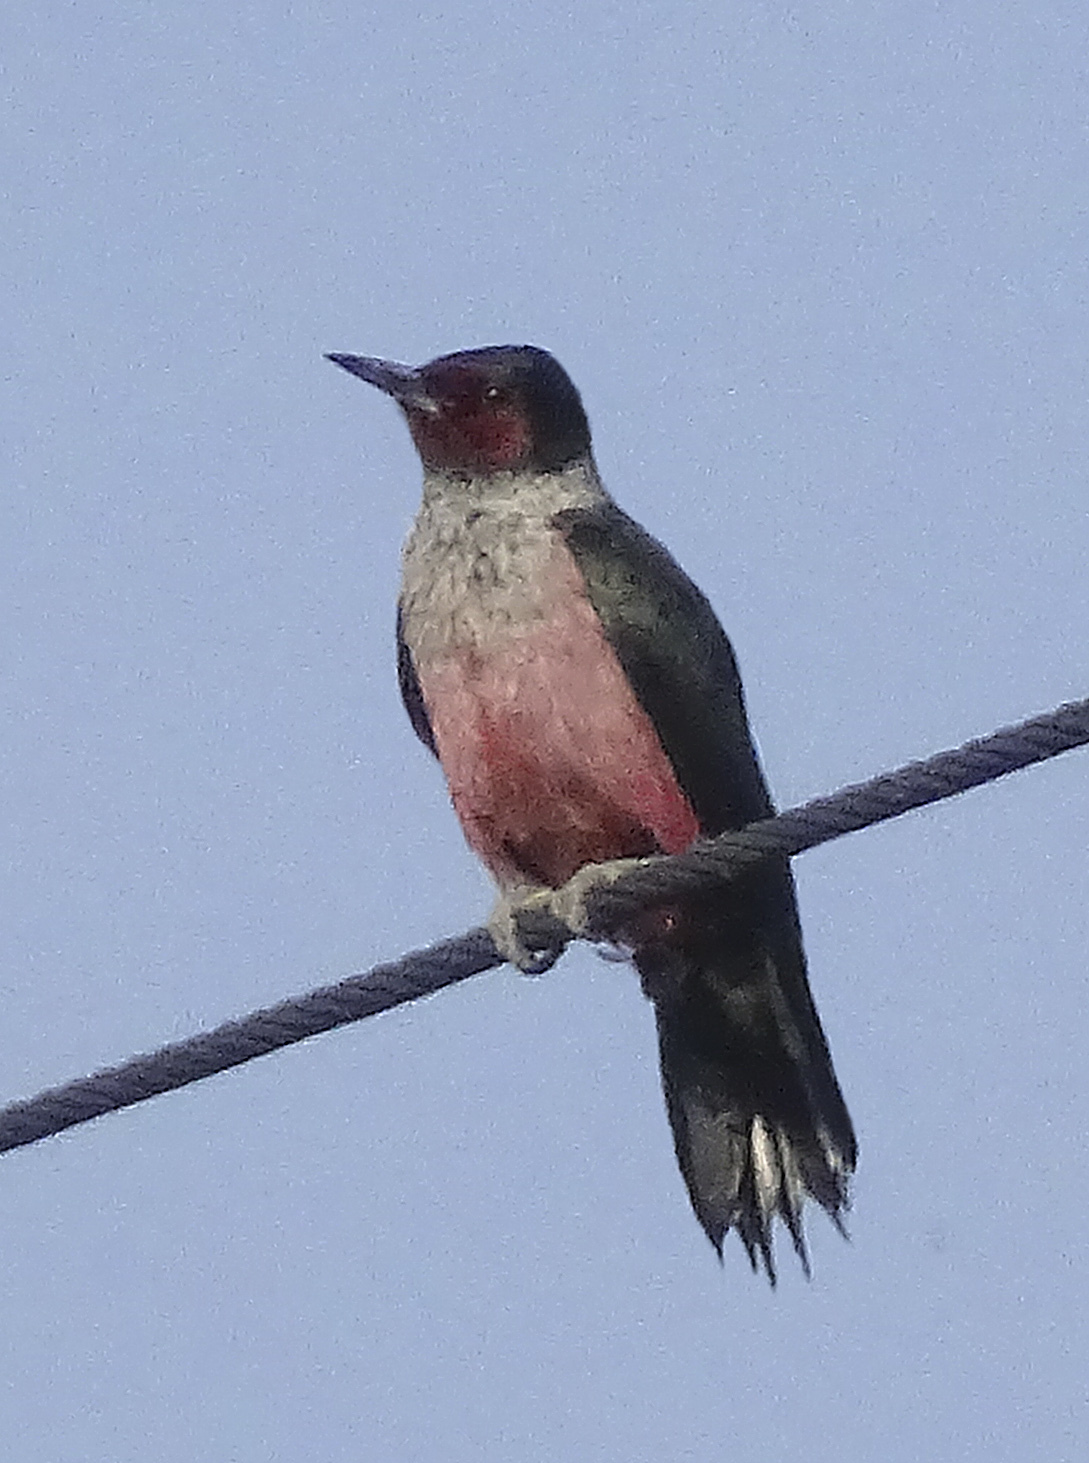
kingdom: Animalia
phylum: Chordata
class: Aves
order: Piciformes
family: Picidae
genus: Melanerpes
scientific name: Melanerpes lewis
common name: Lewis's woodpecker
